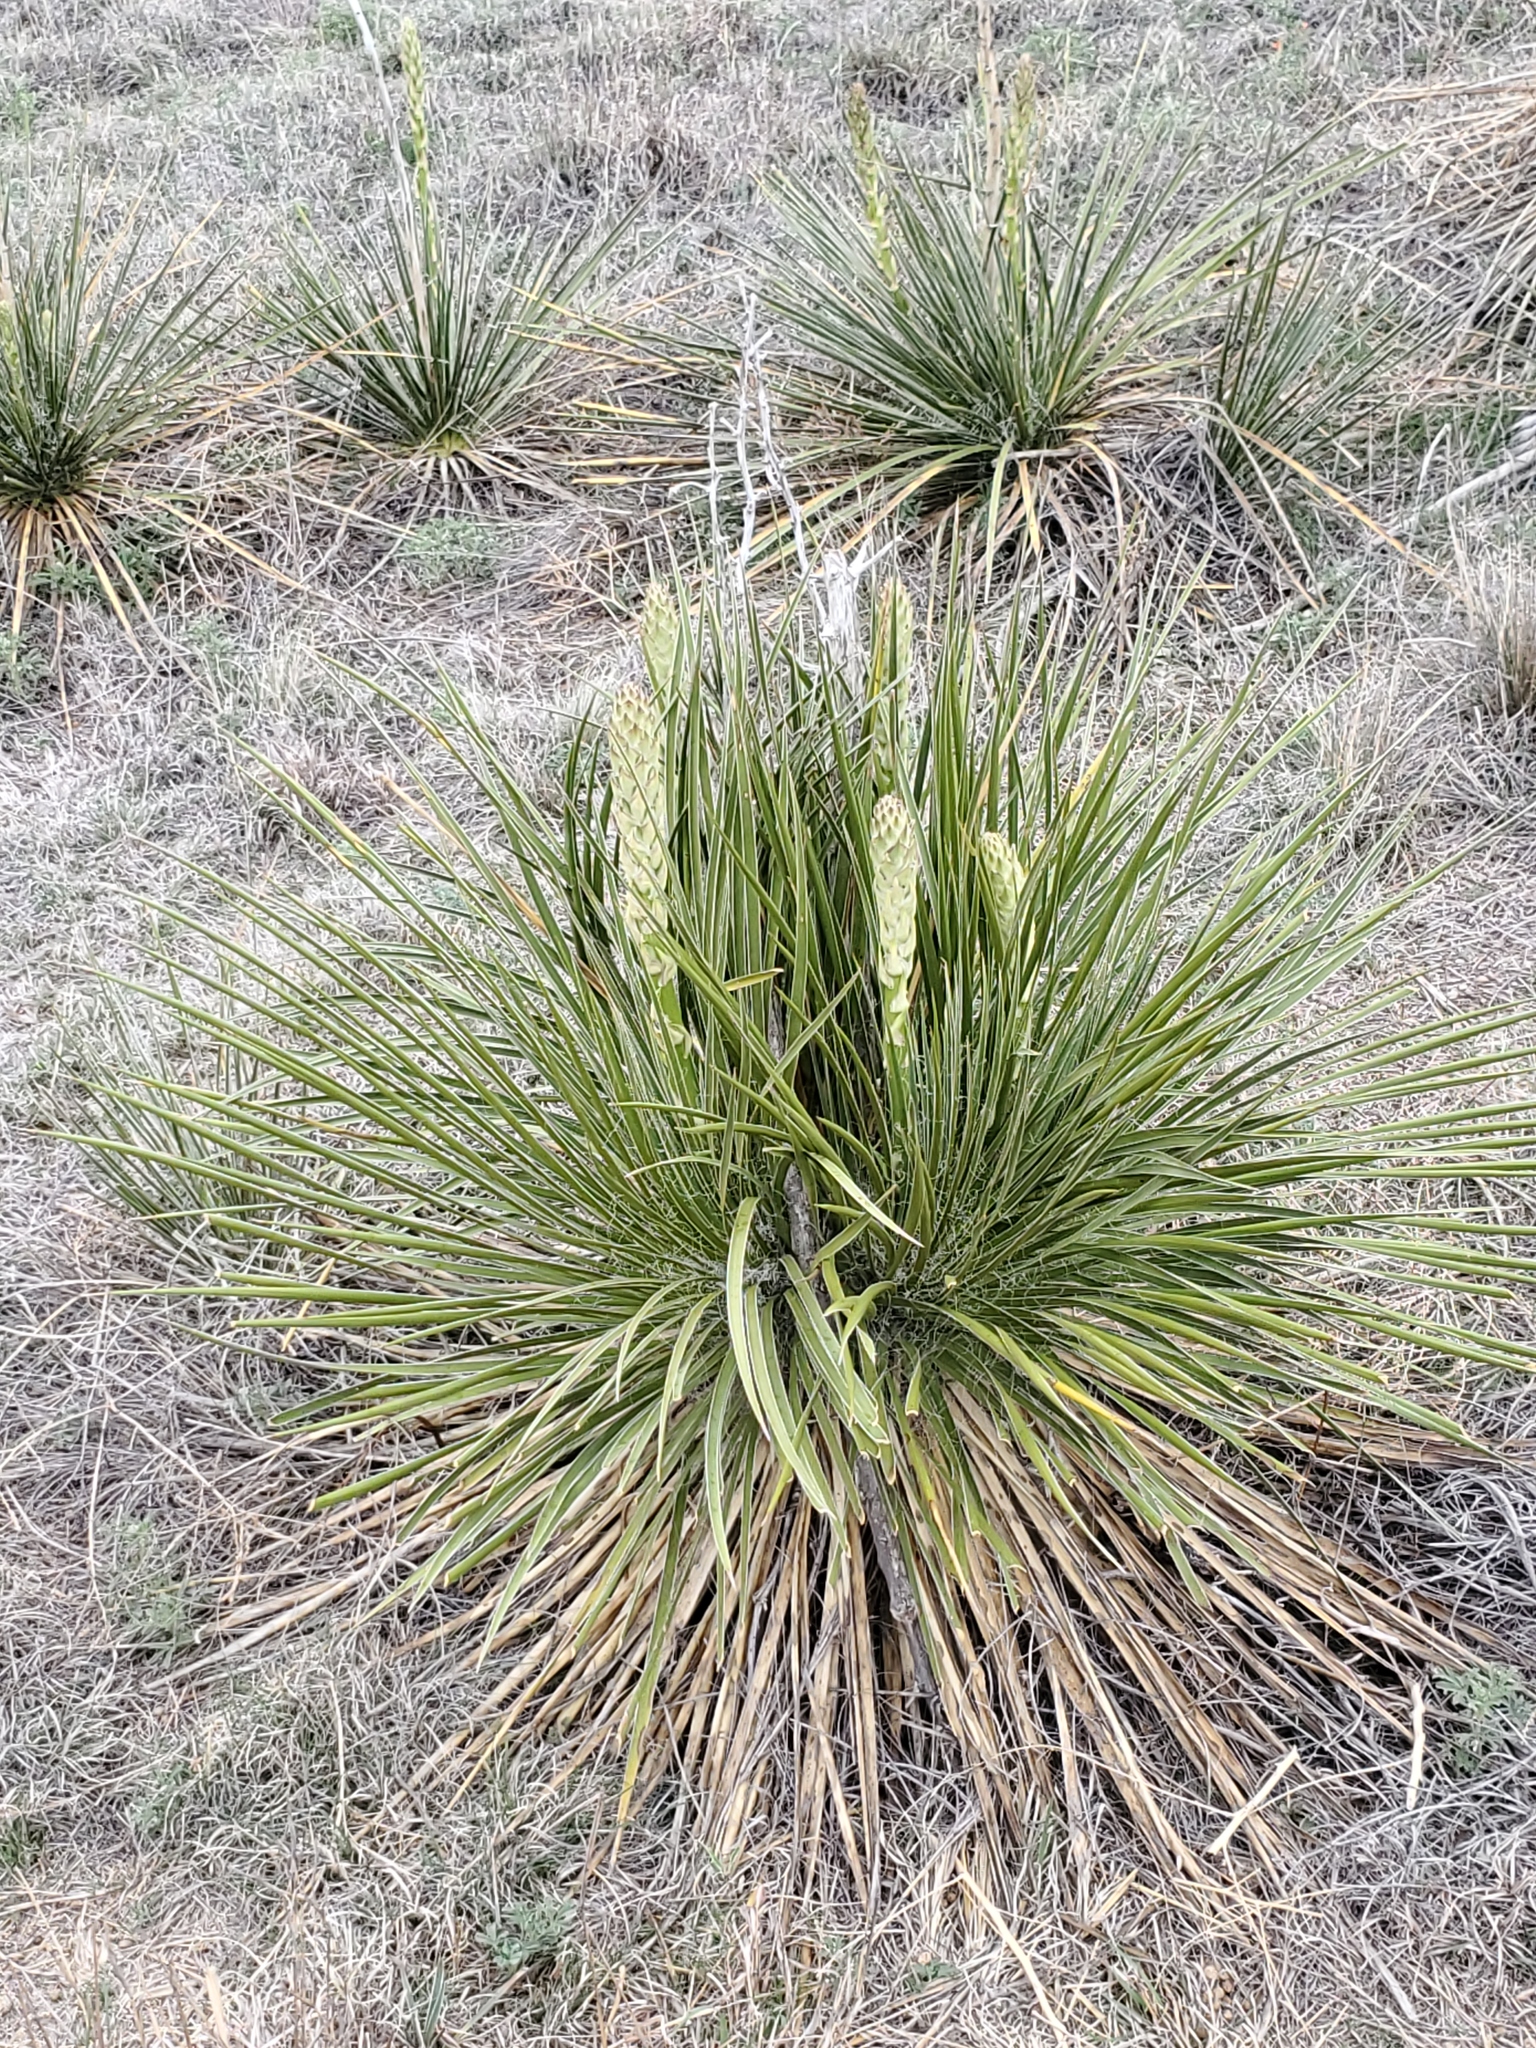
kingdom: Plantae
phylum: Tracheophyta
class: Liliopsida
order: Asparagales
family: Asparagaceae
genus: Yucca
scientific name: Yucca glauca
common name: Great plains yucca
